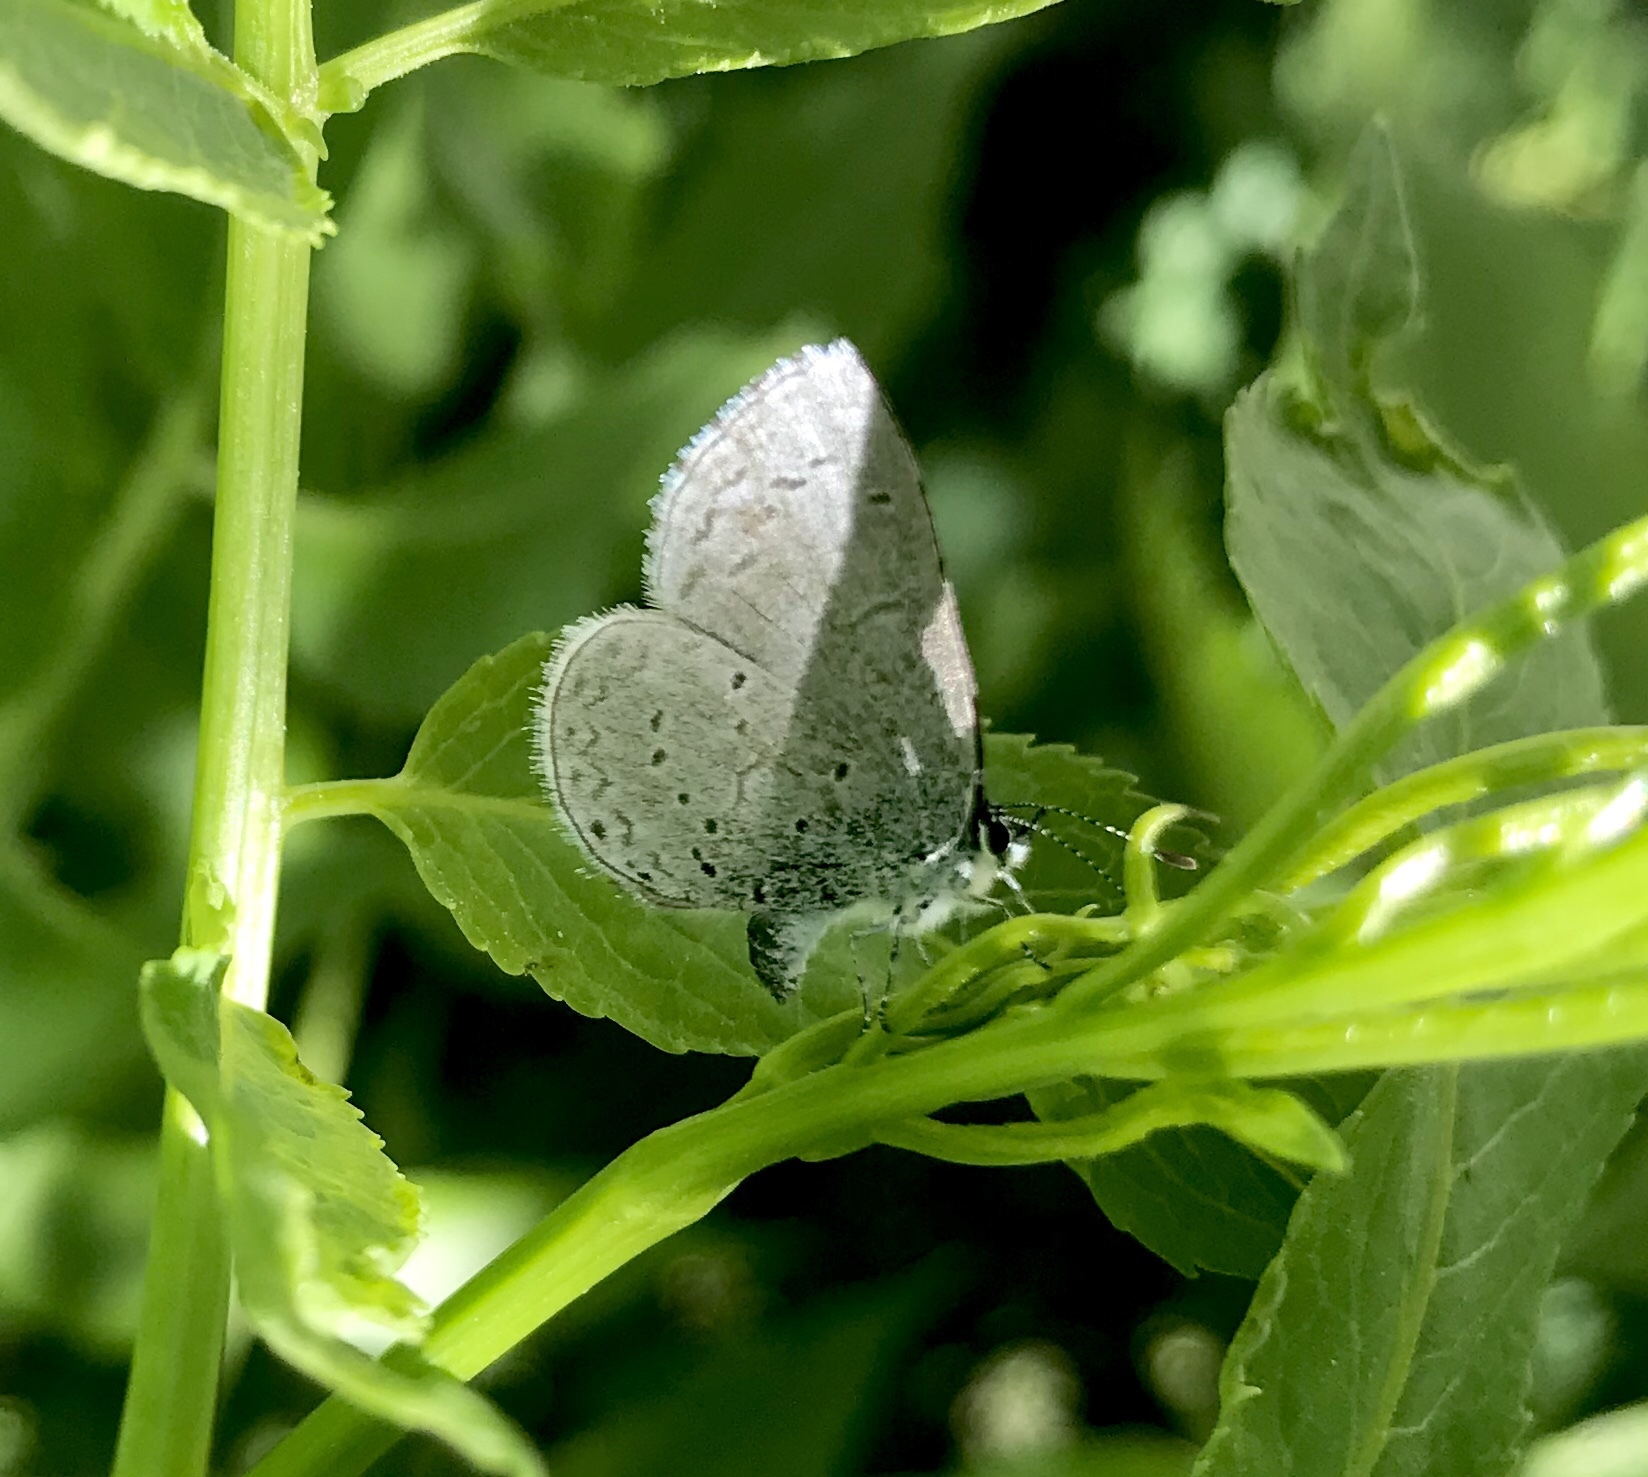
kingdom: Animalia
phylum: Arthropoda
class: Insecta
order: Lepidoptera
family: Lycaenidae
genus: Celastrina
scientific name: Celastrina ladon
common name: Spring azure
